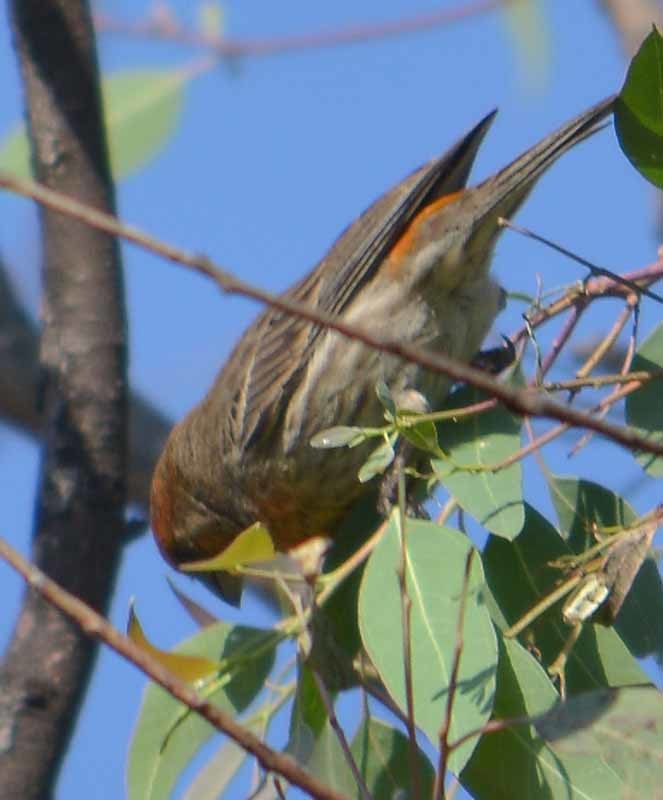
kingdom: Animalia
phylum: Chordata
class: Aves
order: Passeriformes
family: Fringillidae
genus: Haemorhous
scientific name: Haemorhous mexicanus
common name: House finch
